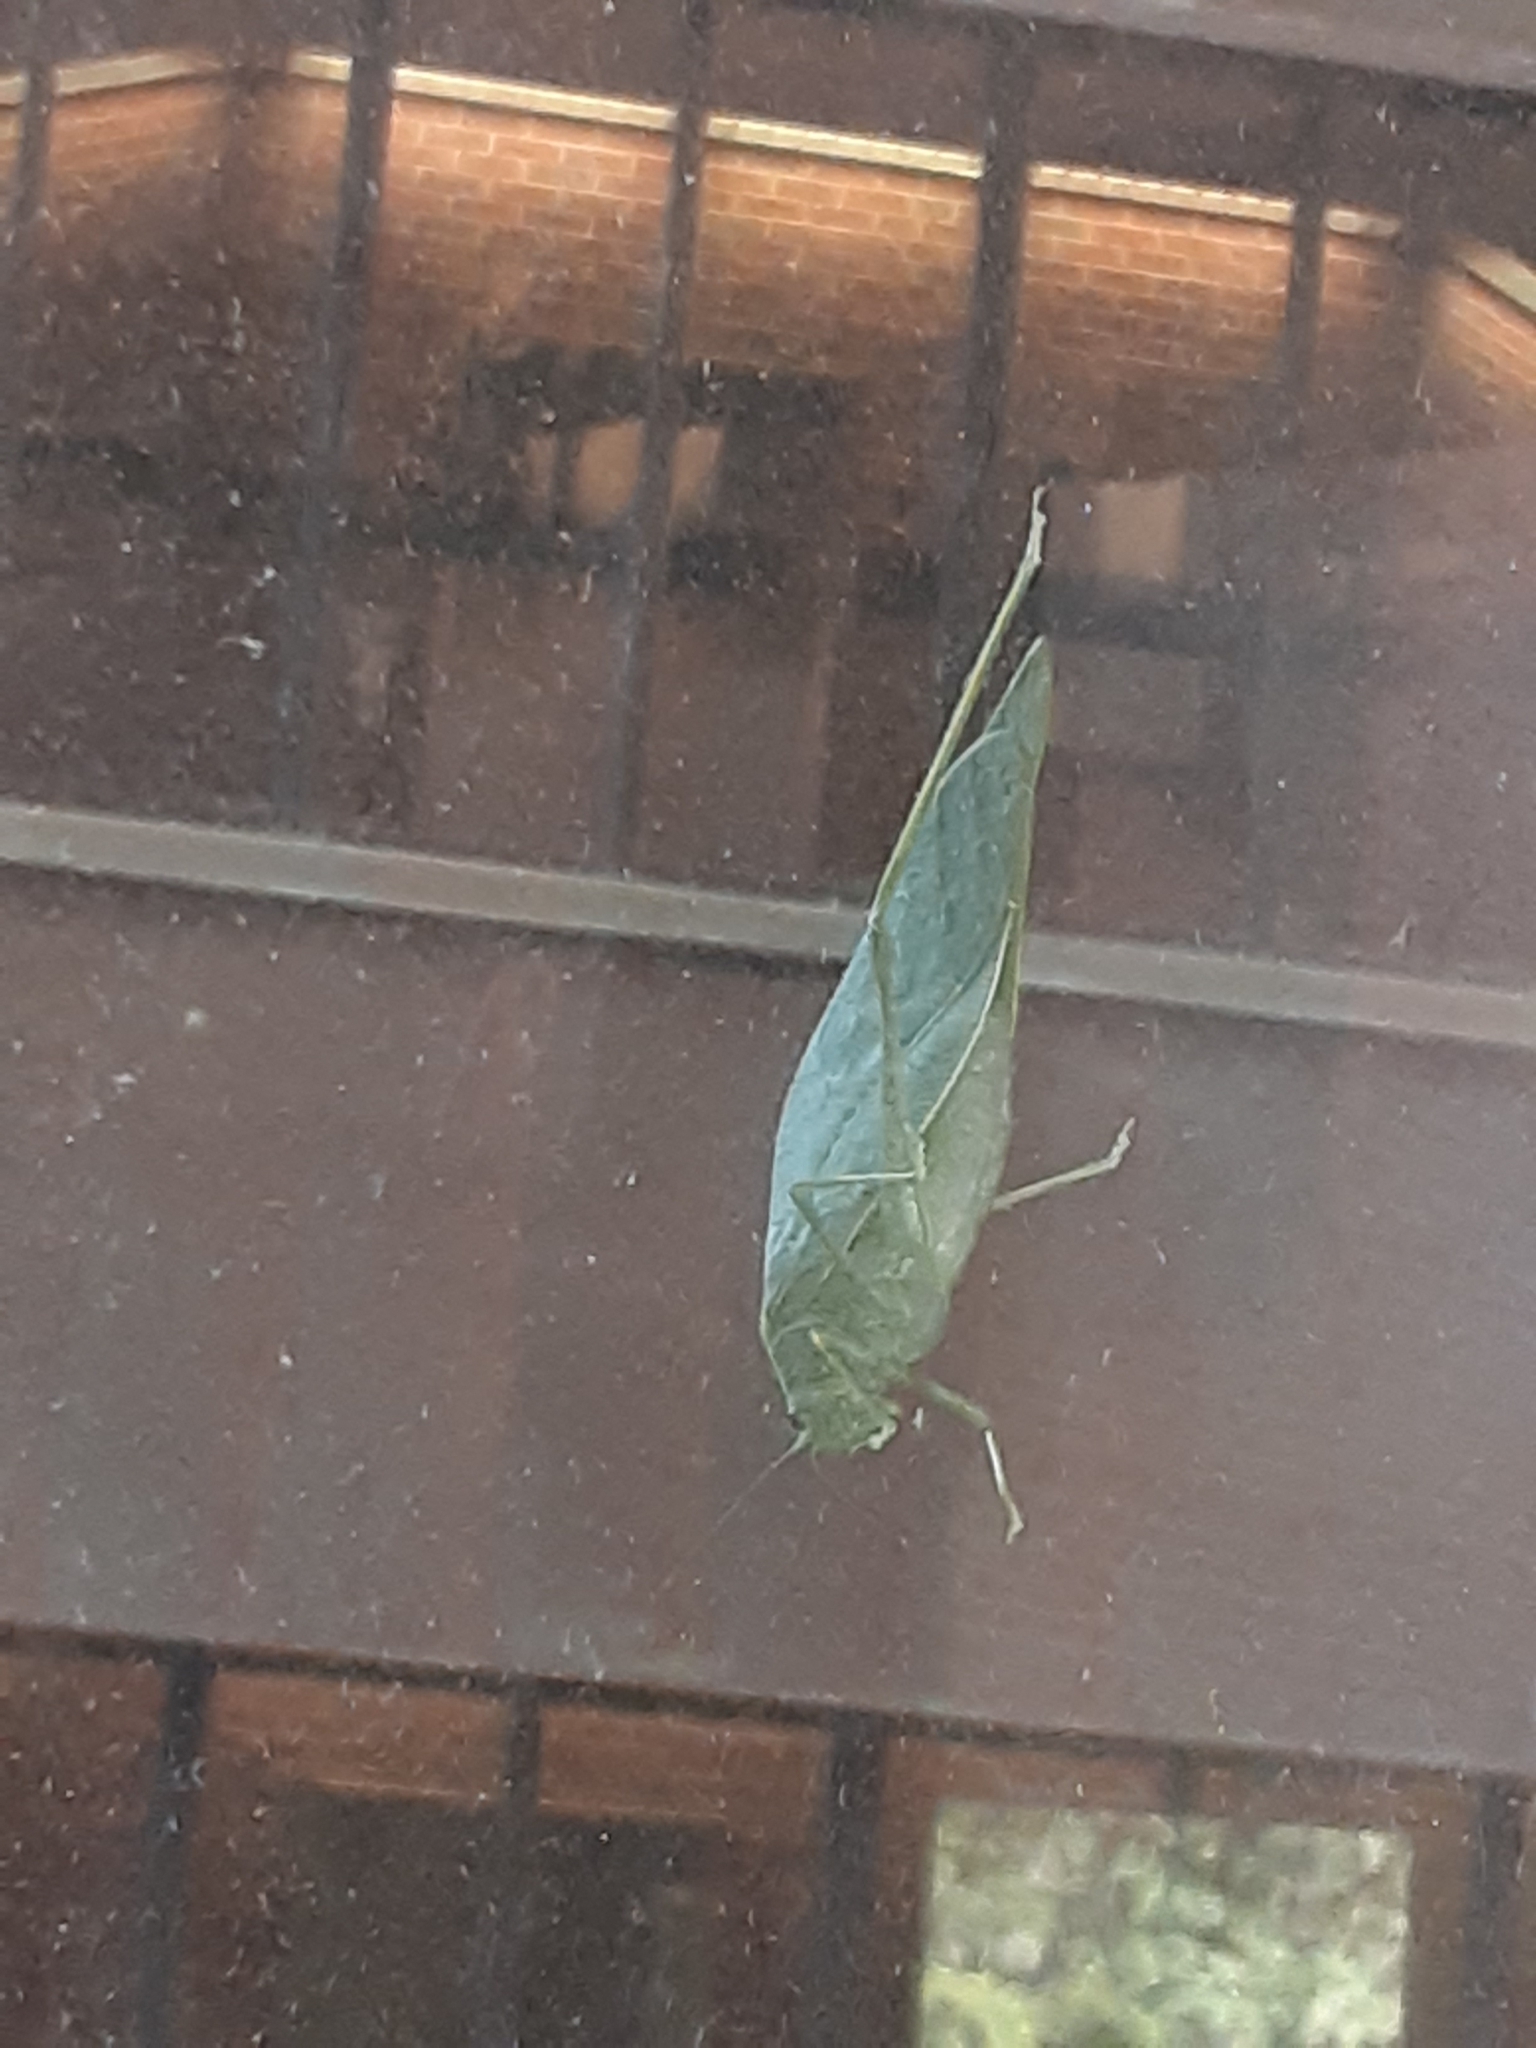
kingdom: Animalia
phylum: Arthropoda
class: Insecta
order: Orthoptera
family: Tettigoniidae
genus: Microcentrum
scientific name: Microcentrum rhombifolium
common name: Broad-winged katydid
